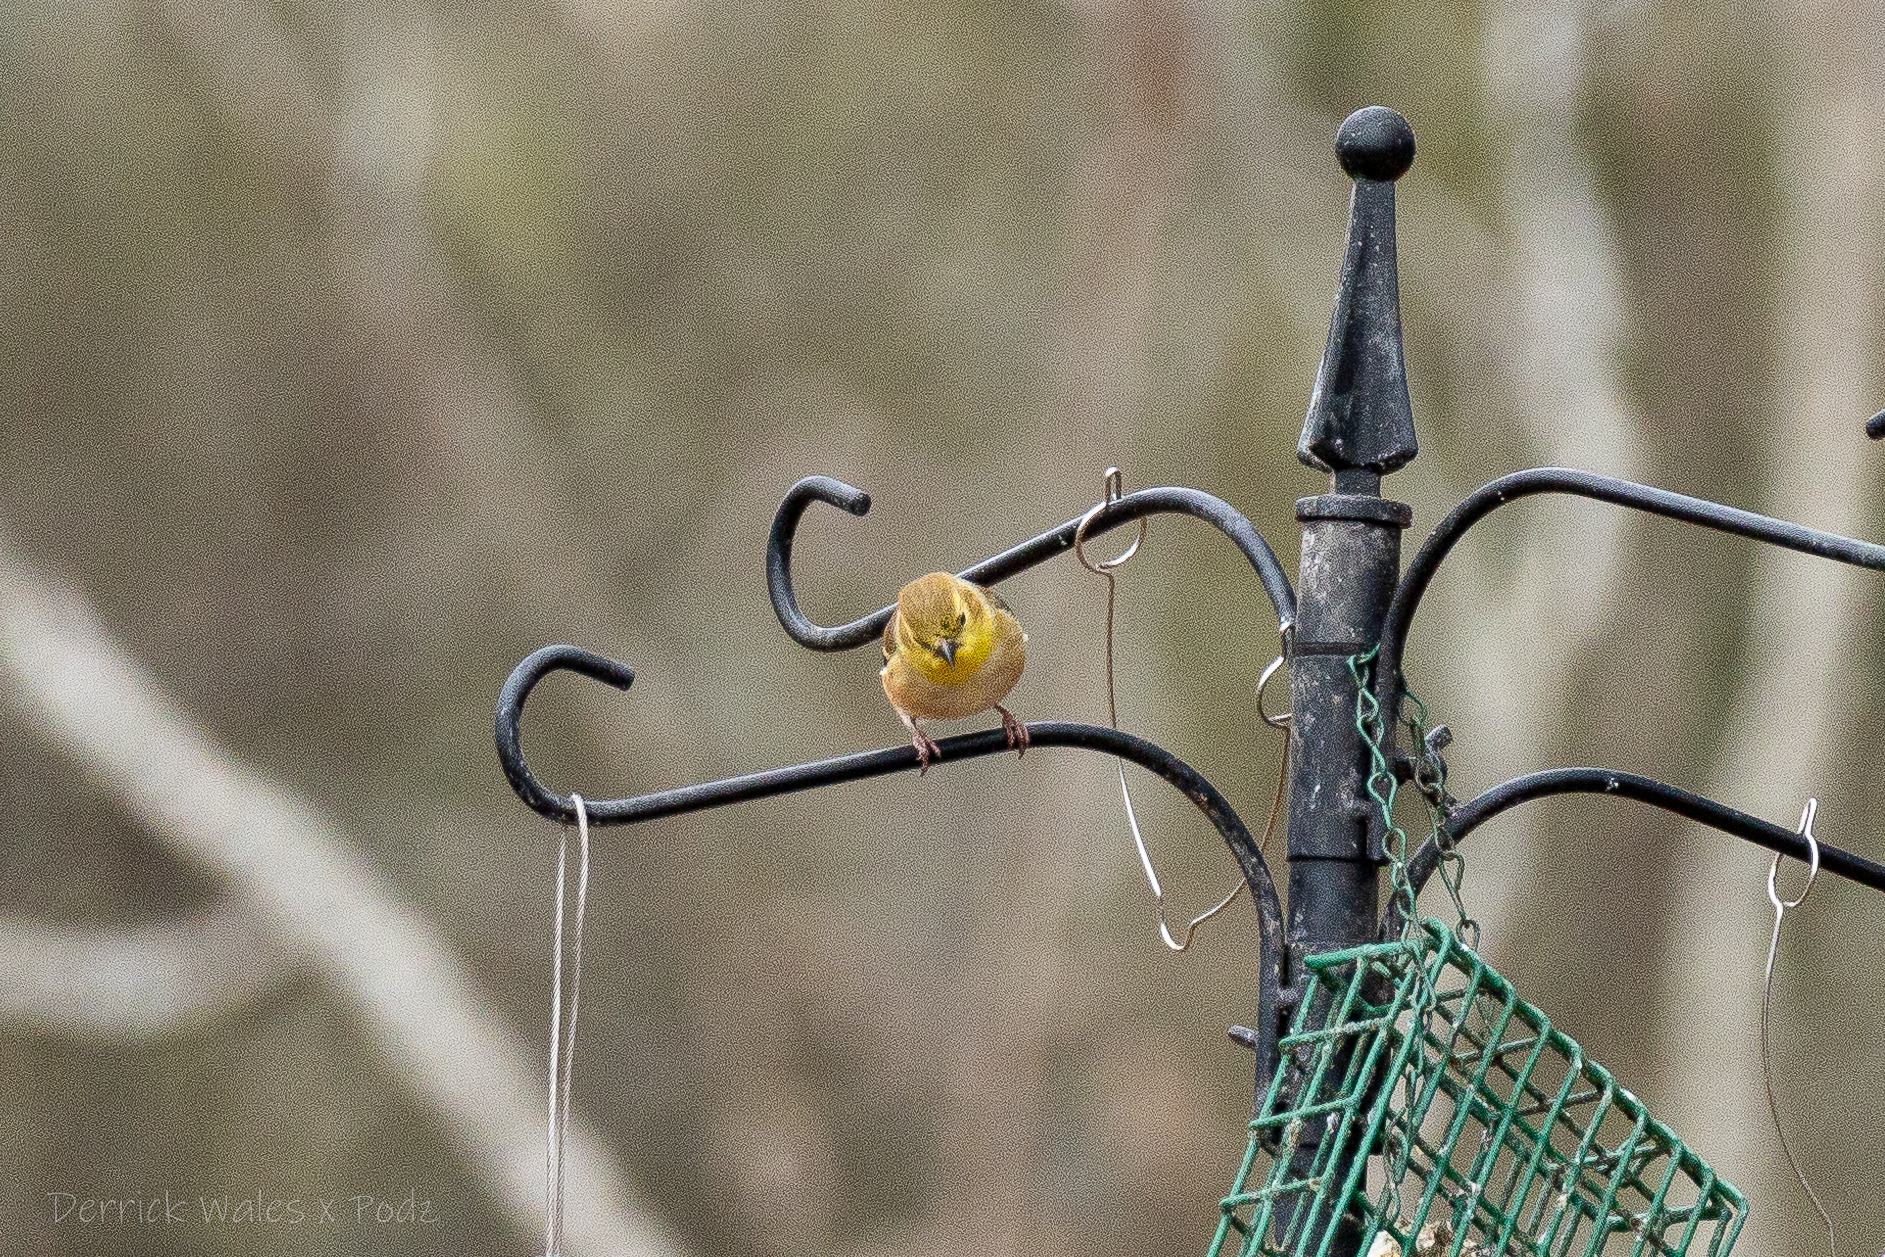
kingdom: Animalia
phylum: Chordata
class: Aves
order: Passeriformes
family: Fringillidae
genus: Spinus
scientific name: Spinus tristis
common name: American goldfinch
